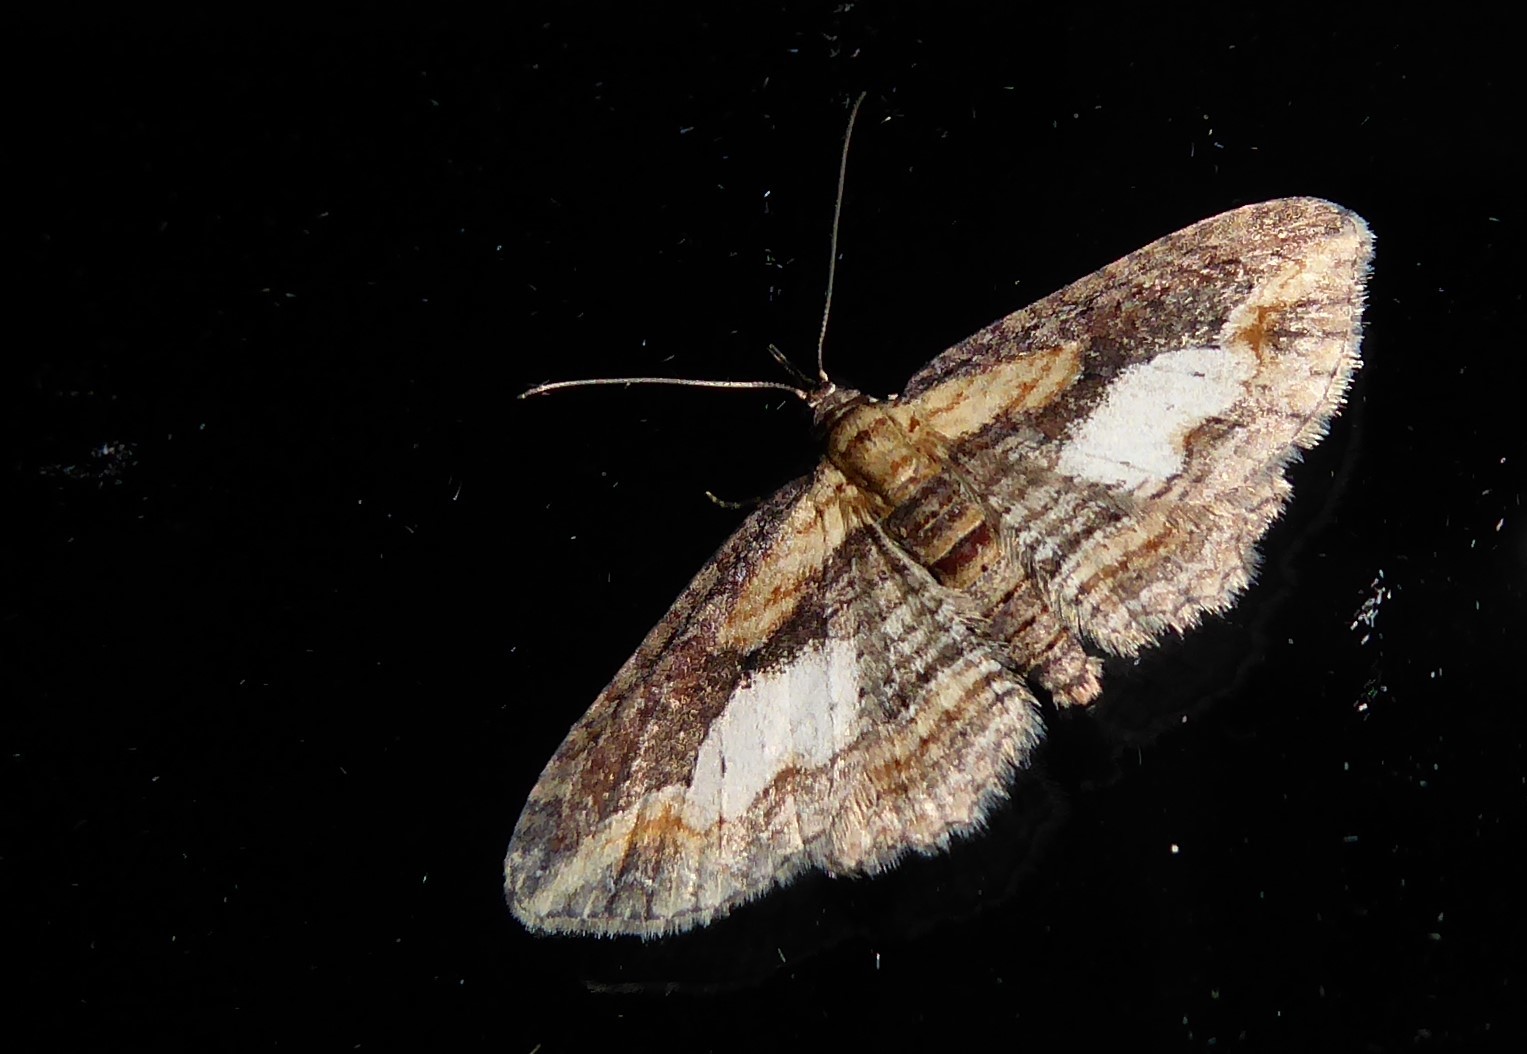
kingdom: Animalia
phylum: Arthropoda
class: Insecta
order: Lepidoptera
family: Geometridae
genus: Chloroclystis
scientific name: Chloroclystis filata
